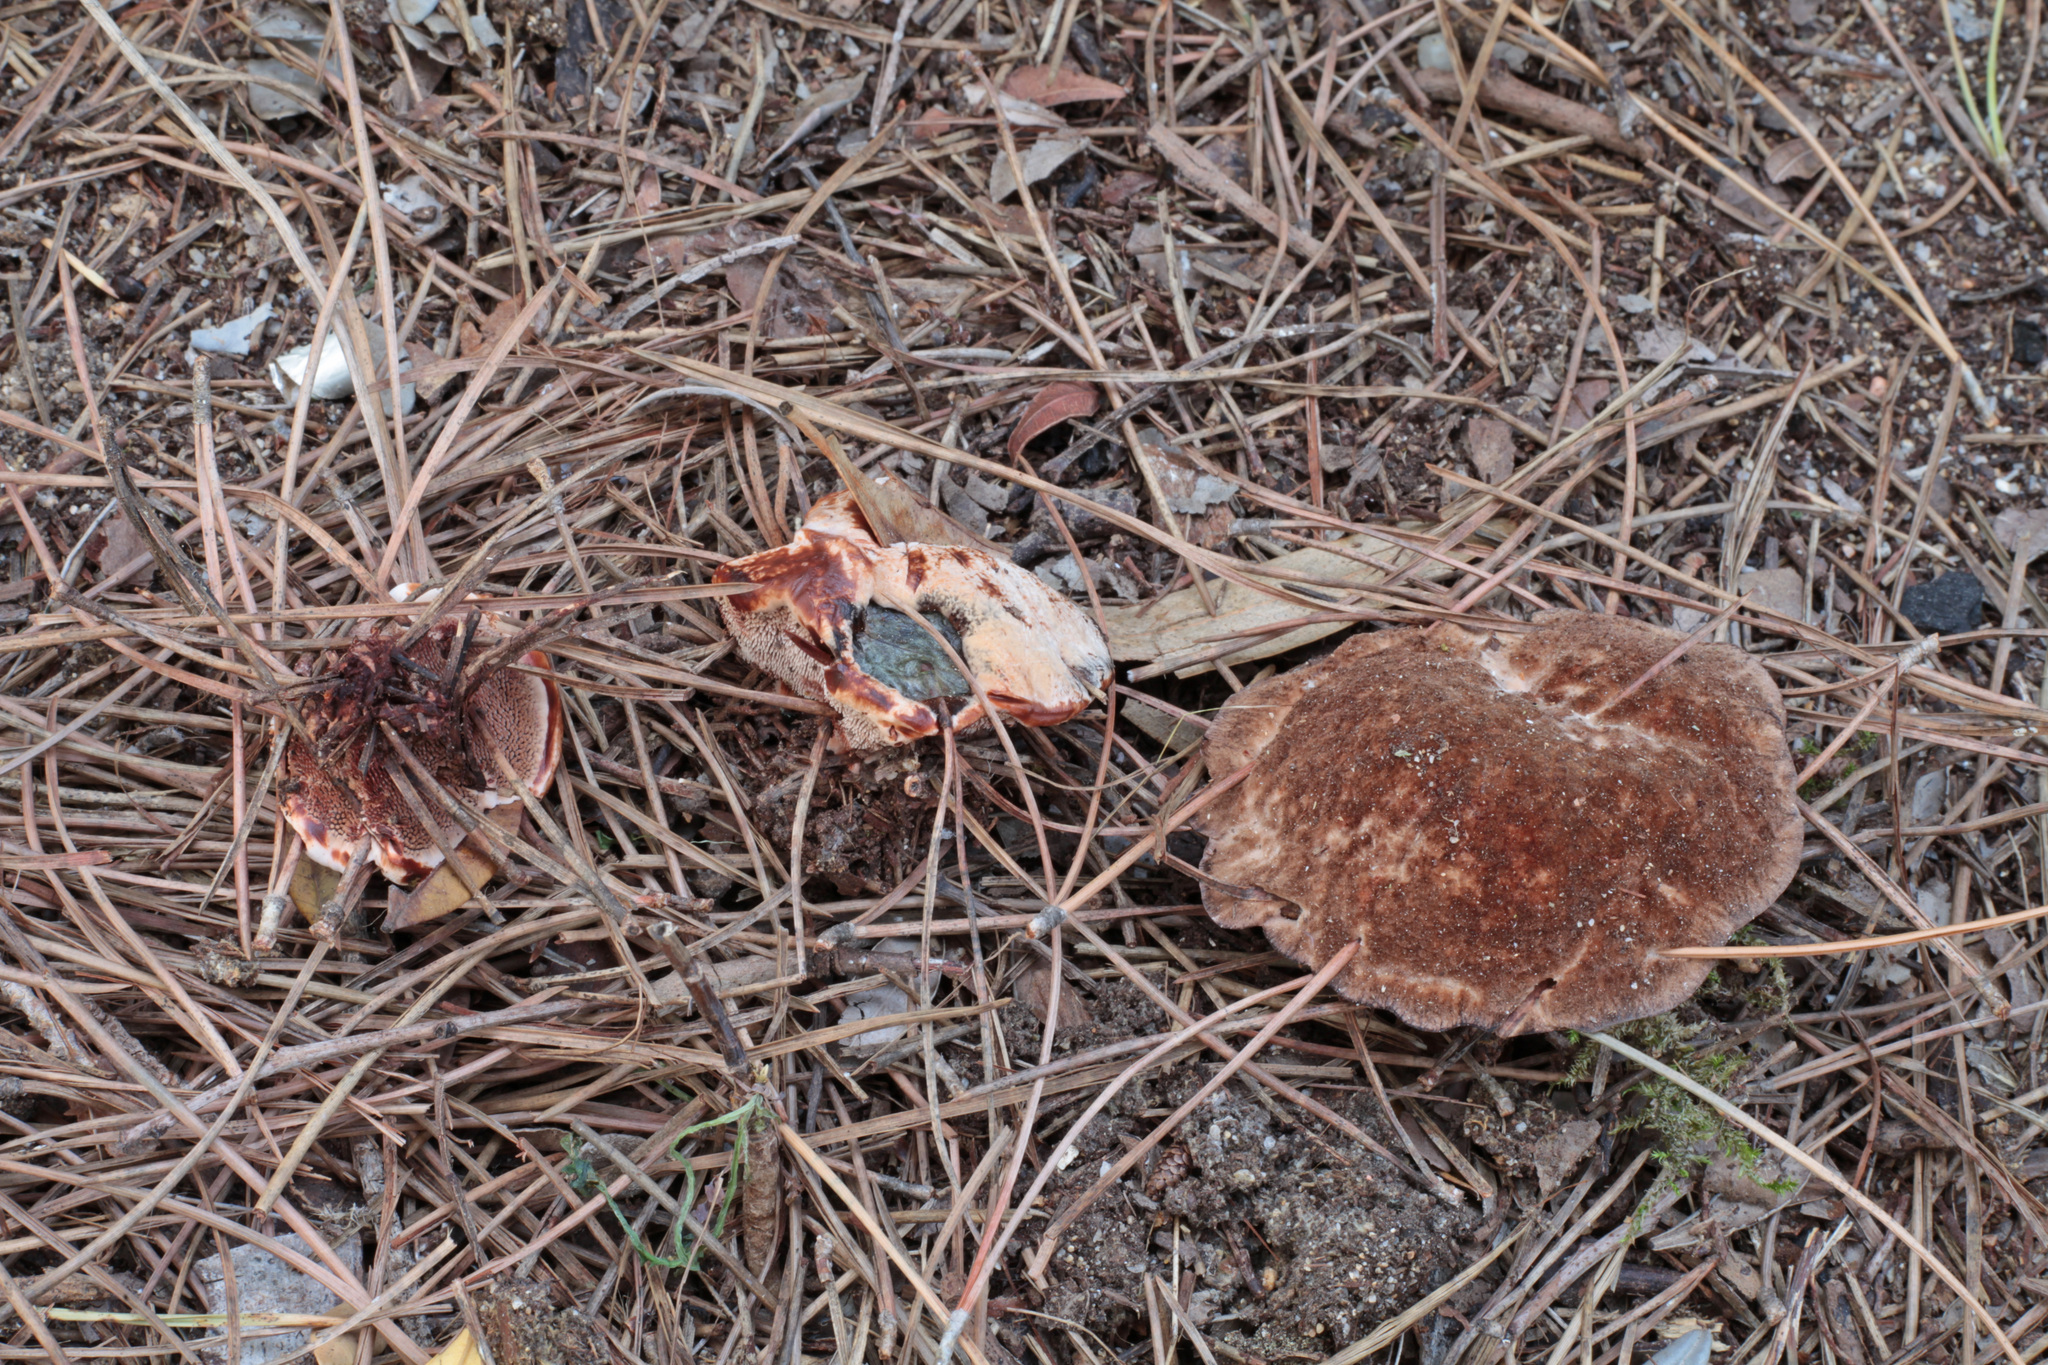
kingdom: Fungi
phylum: Basidiomycota
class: Agaricomycetes
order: Thelephorales
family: Bankeraceae
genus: Hydnellum
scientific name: Hydnellum ferrugineum
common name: Mealy tooth
